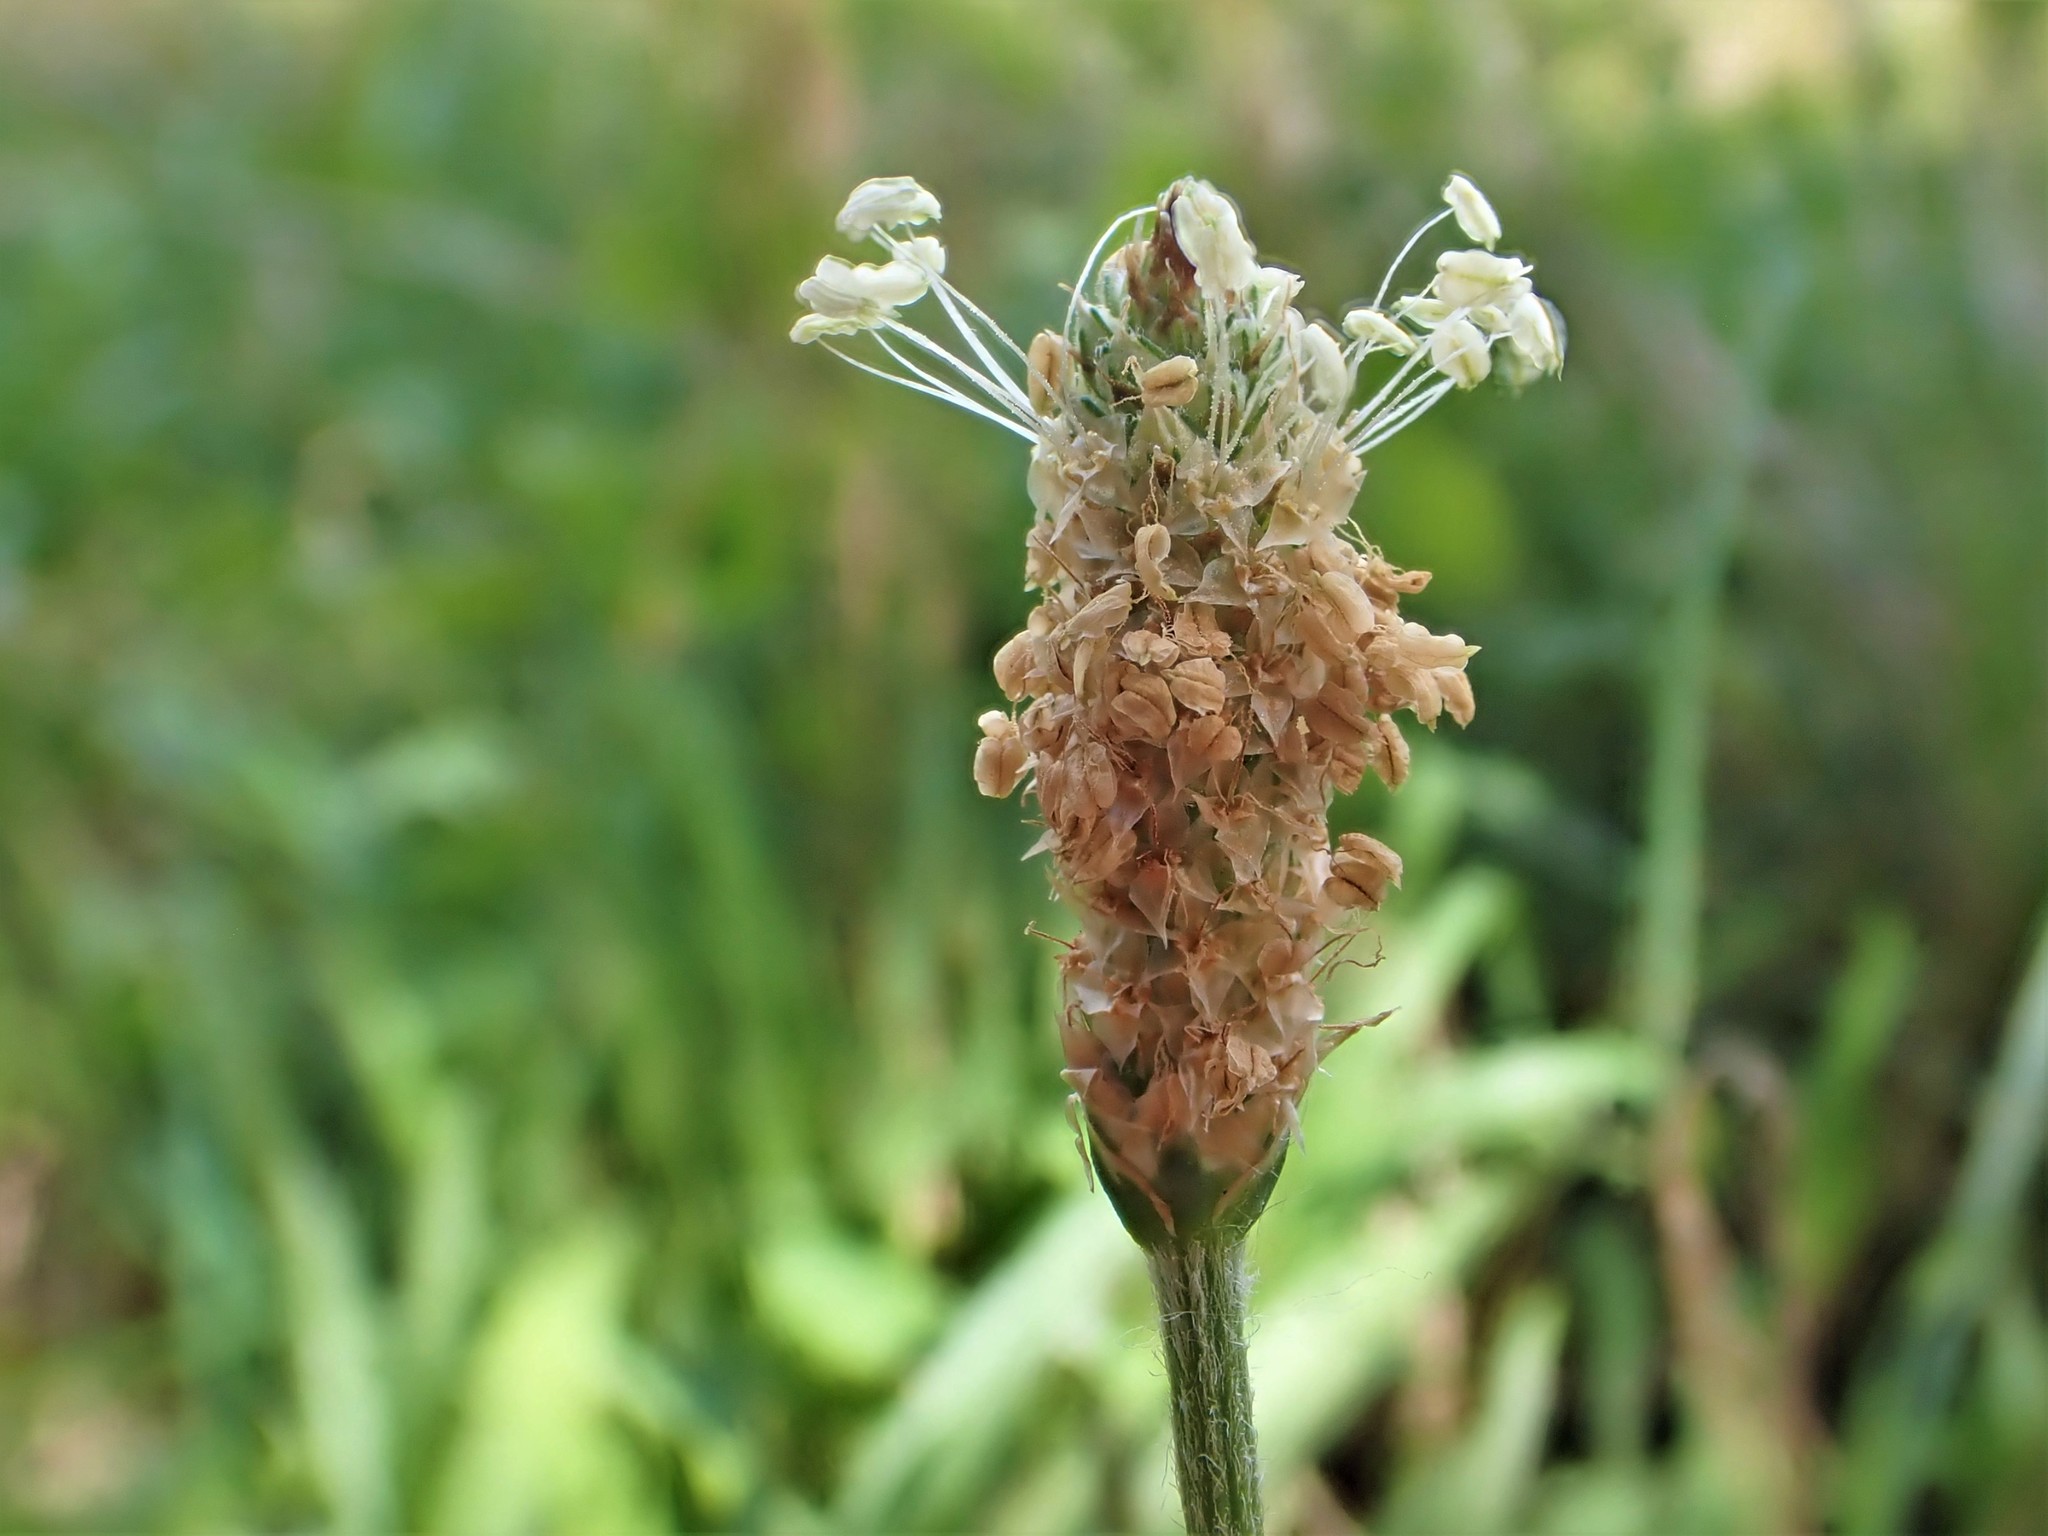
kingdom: Plantae
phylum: Tracheophyta
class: Magnoliopsida
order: Lamiales
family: Plantaginaceae
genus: Plantago
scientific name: Plantago lanceolata
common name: Ribwort plantain
